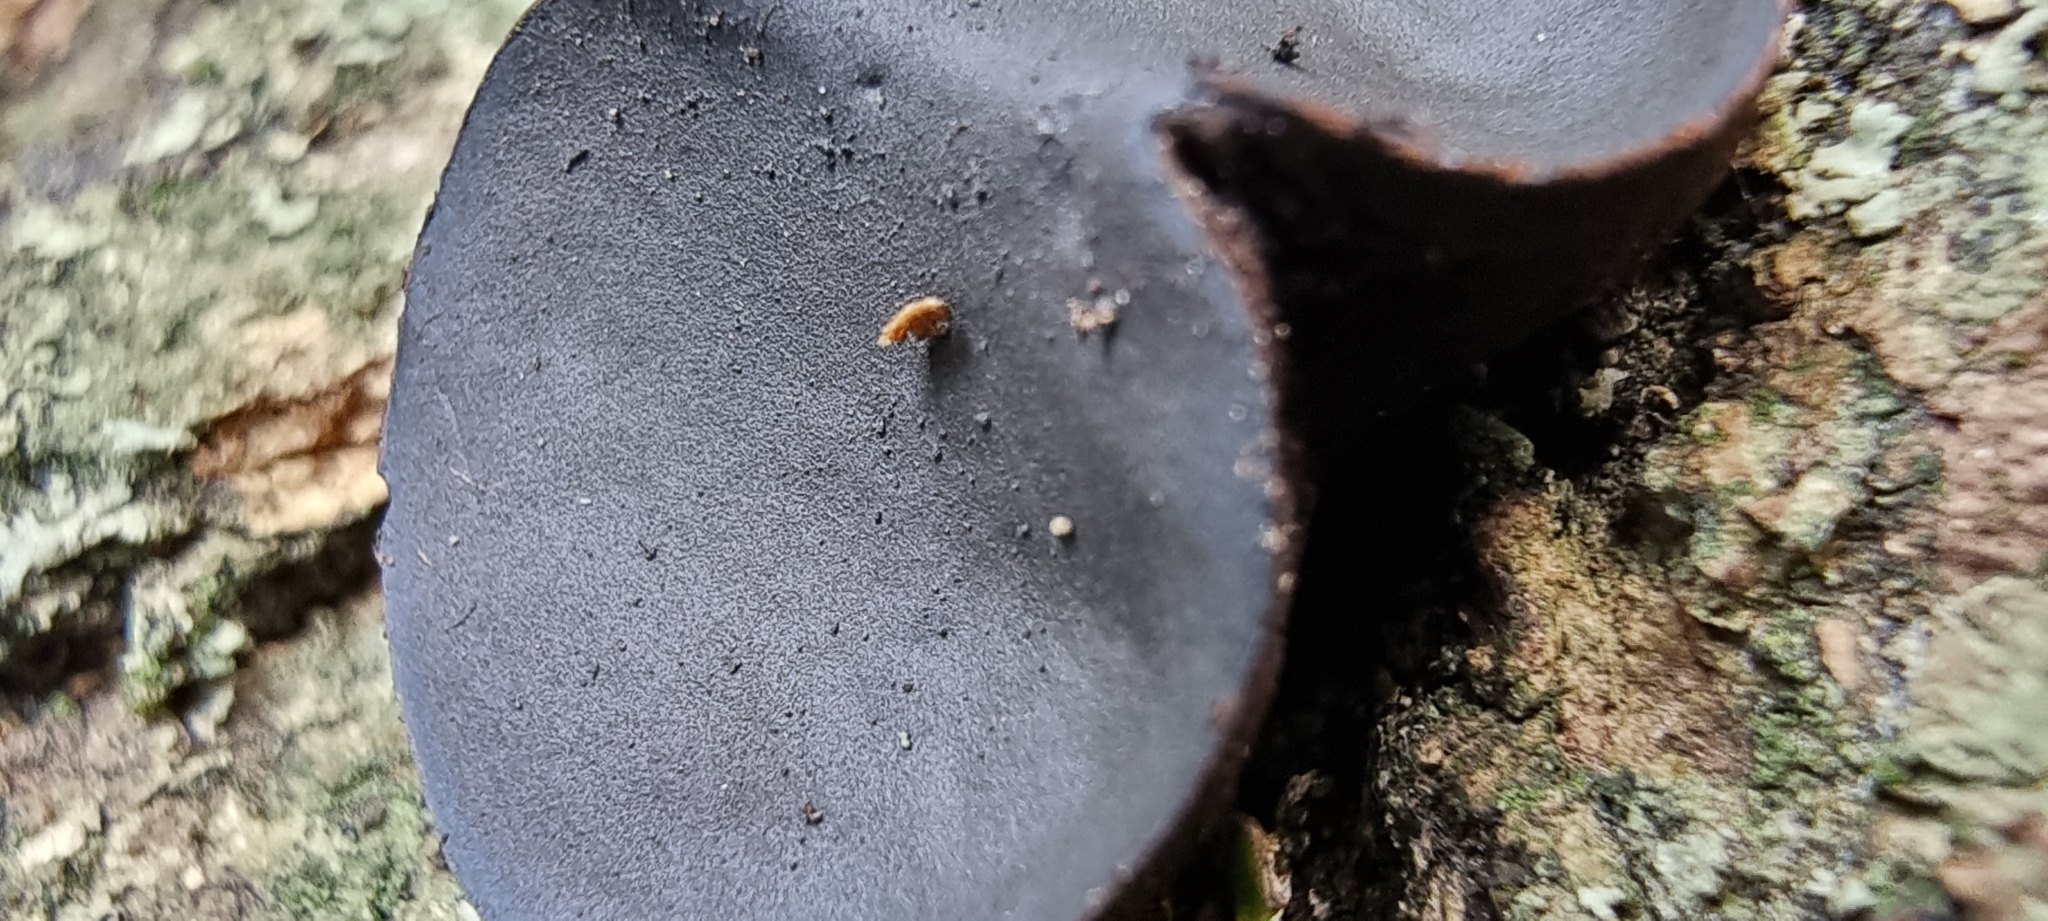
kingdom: Fungi
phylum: Ascomycota
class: Leotiomycetes
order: Phacidiales
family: Phacidiaceae
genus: Bulgaria
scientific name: Bulgaria inquinans
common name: Black bulgar
